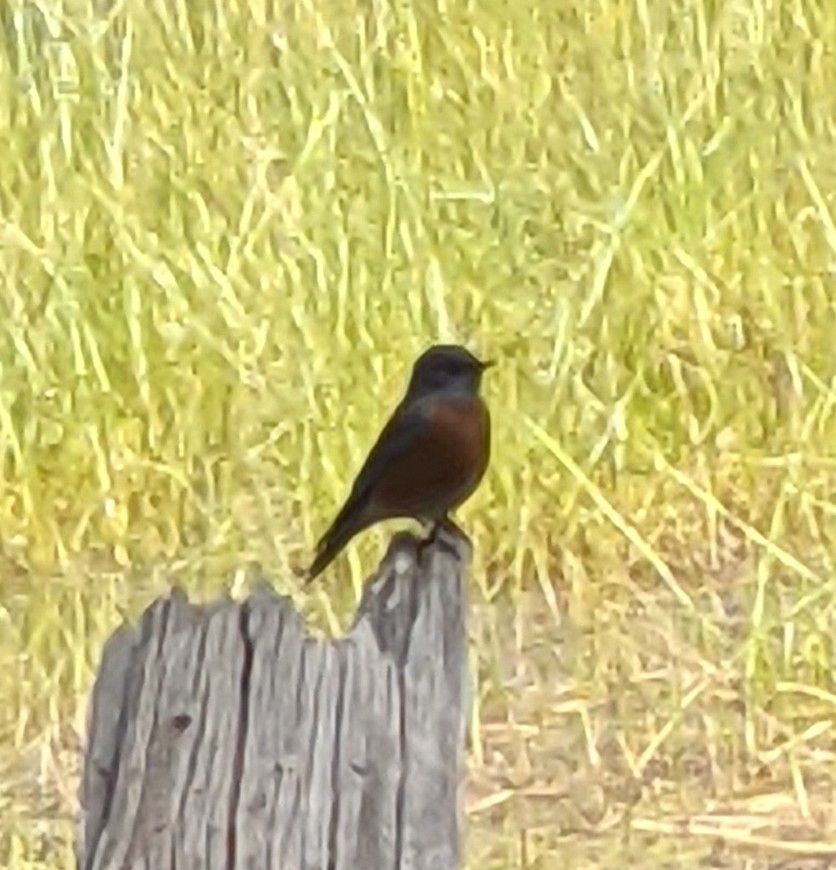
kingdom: Animalia
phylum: Chordata
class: Aves
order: Passeriformes
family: Turdidae
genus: Sialia
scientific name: Sialia mexicana
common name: Western bluebird
